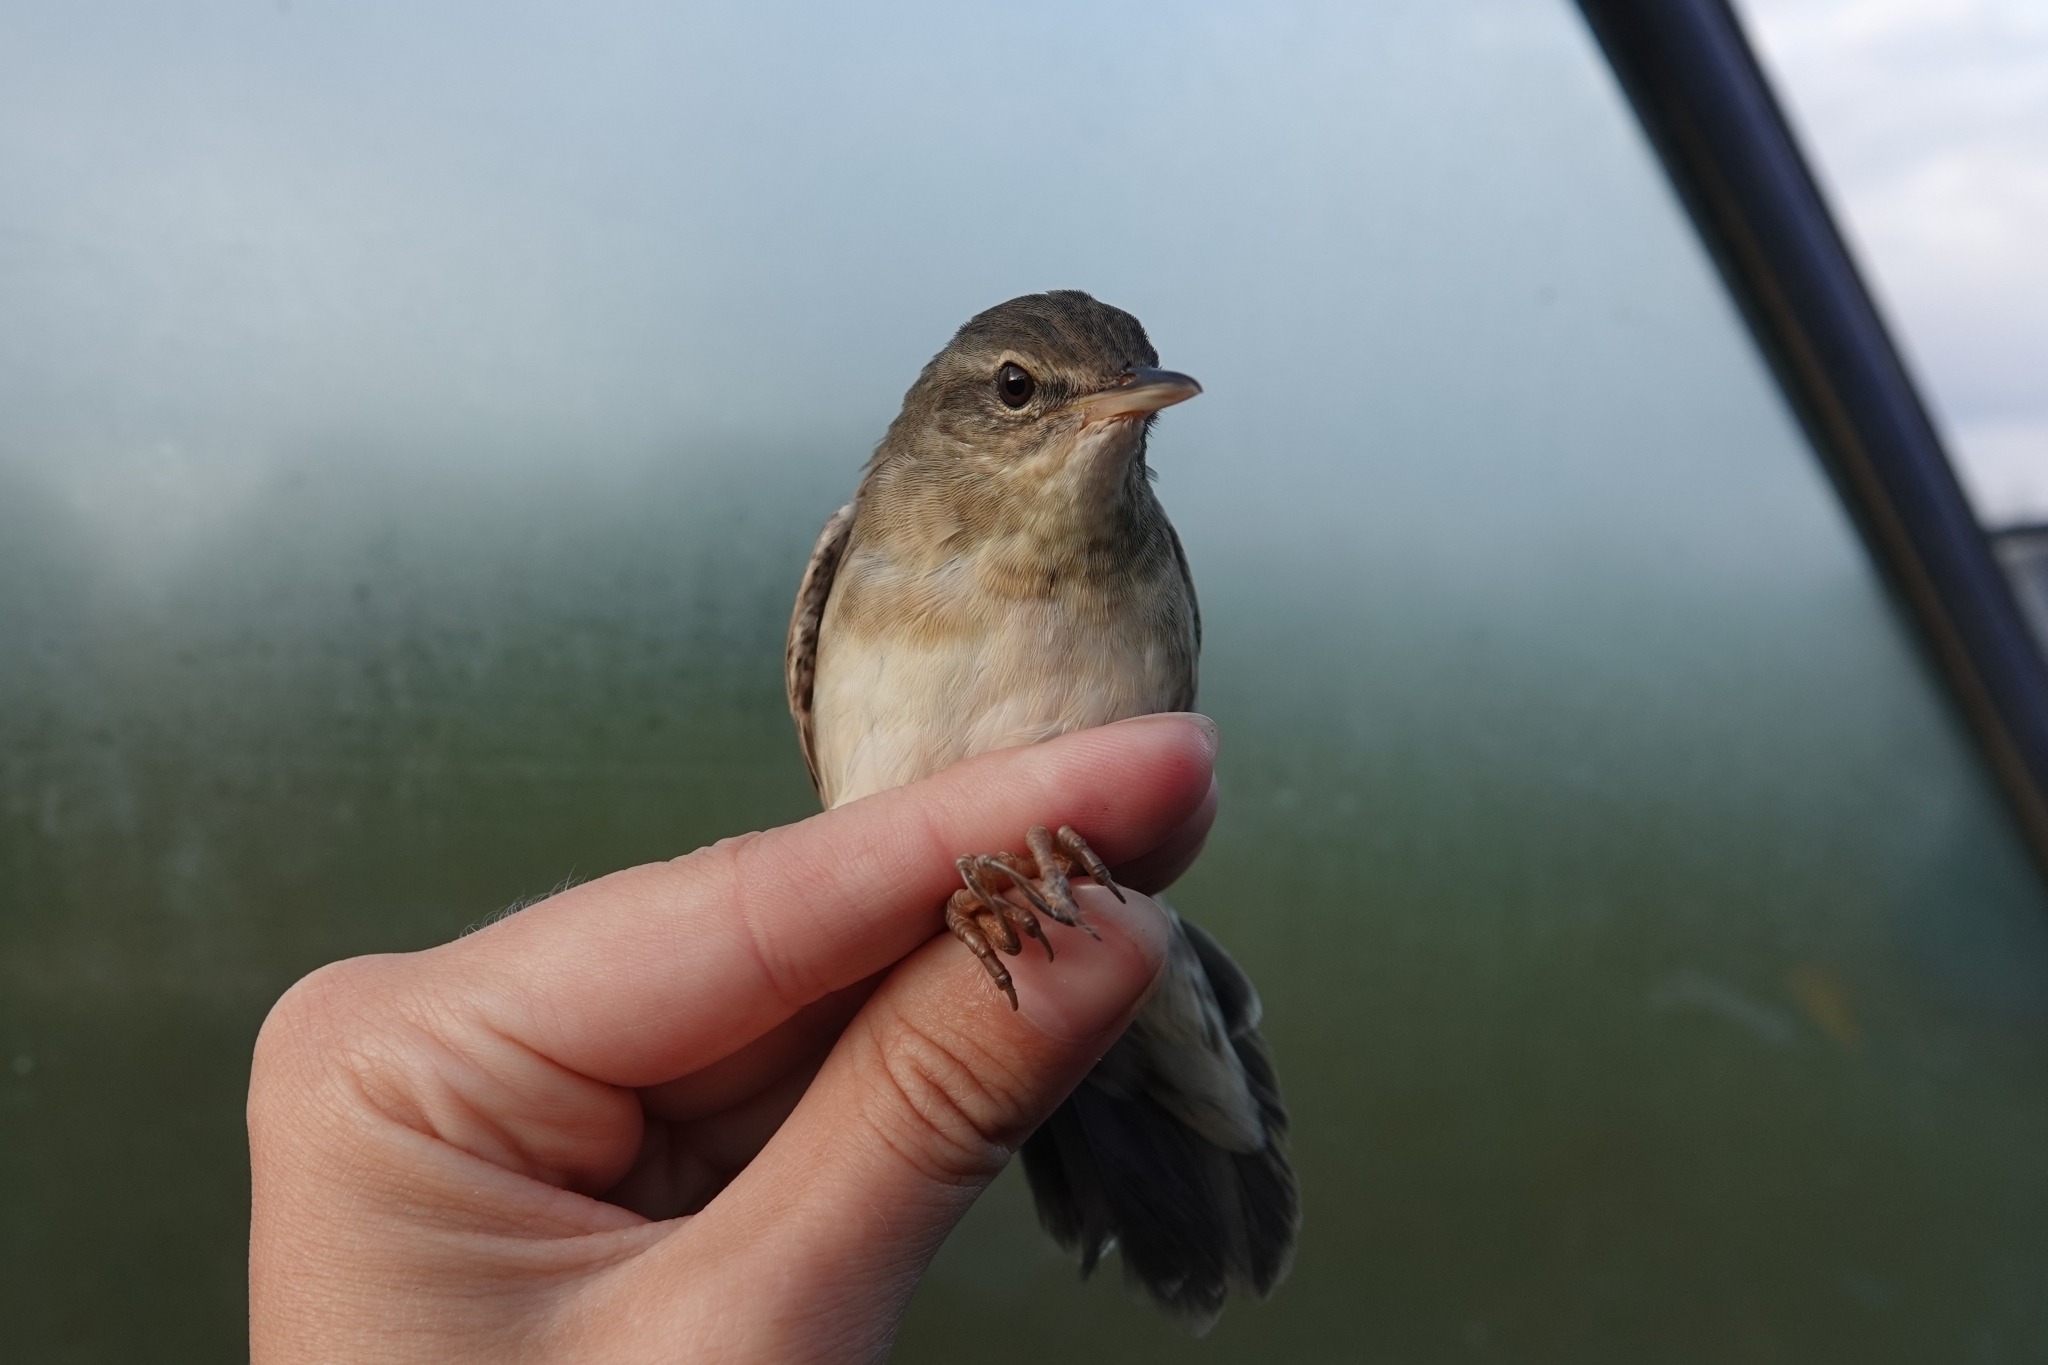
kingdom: Animalia
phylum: Chordata
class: Aves
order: Passeriformes
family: Locustellidae
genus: Locustella
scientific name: Locustella ochotensis
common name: Middendorff's grasshopper-warbler
